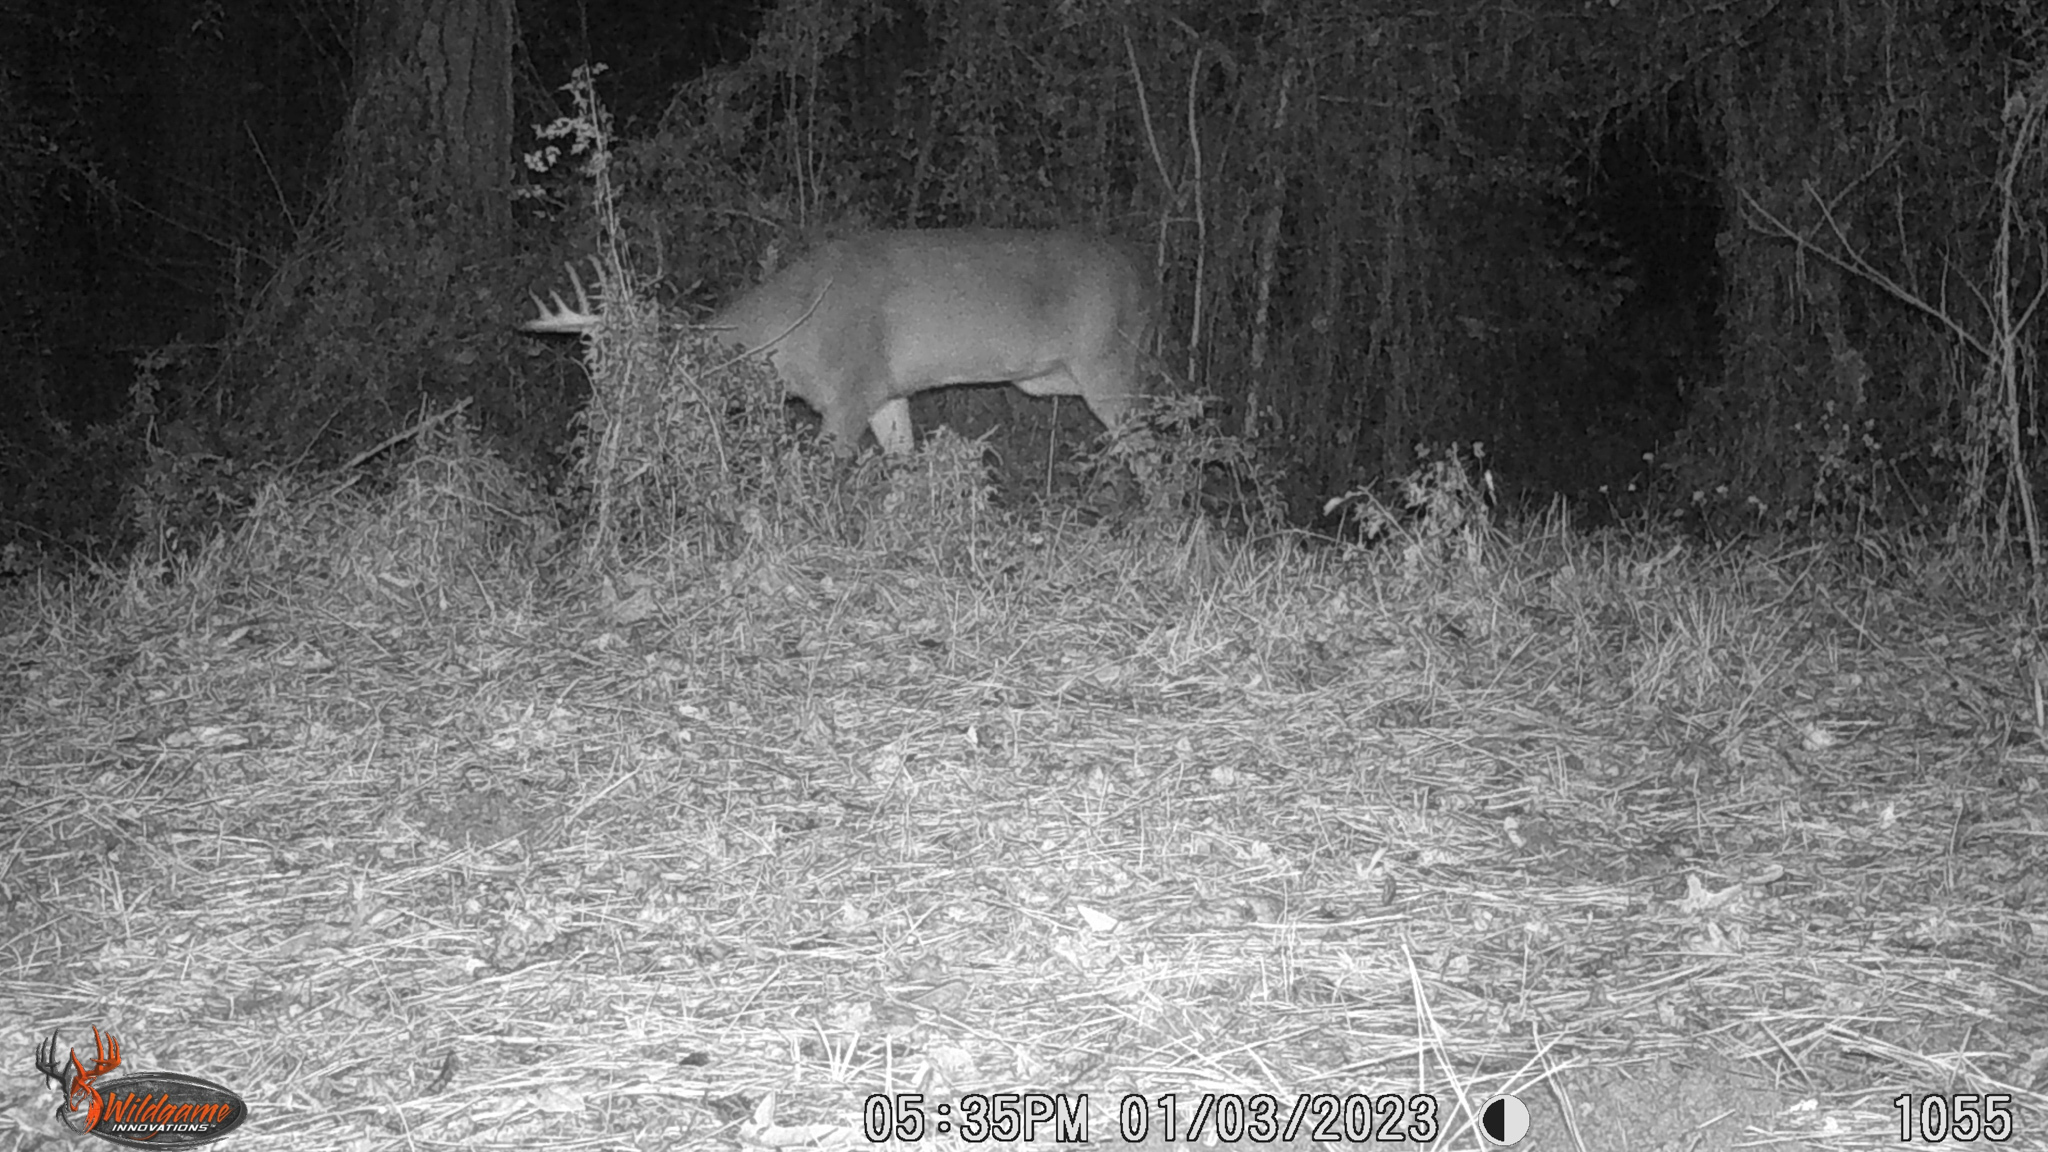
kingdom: Animalia
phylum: Chordata
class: Mammalia
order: Artiodactyla
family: Cervidae
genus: Odocoileus
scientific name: Odocoileus virginianus
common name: White-tailed deer
